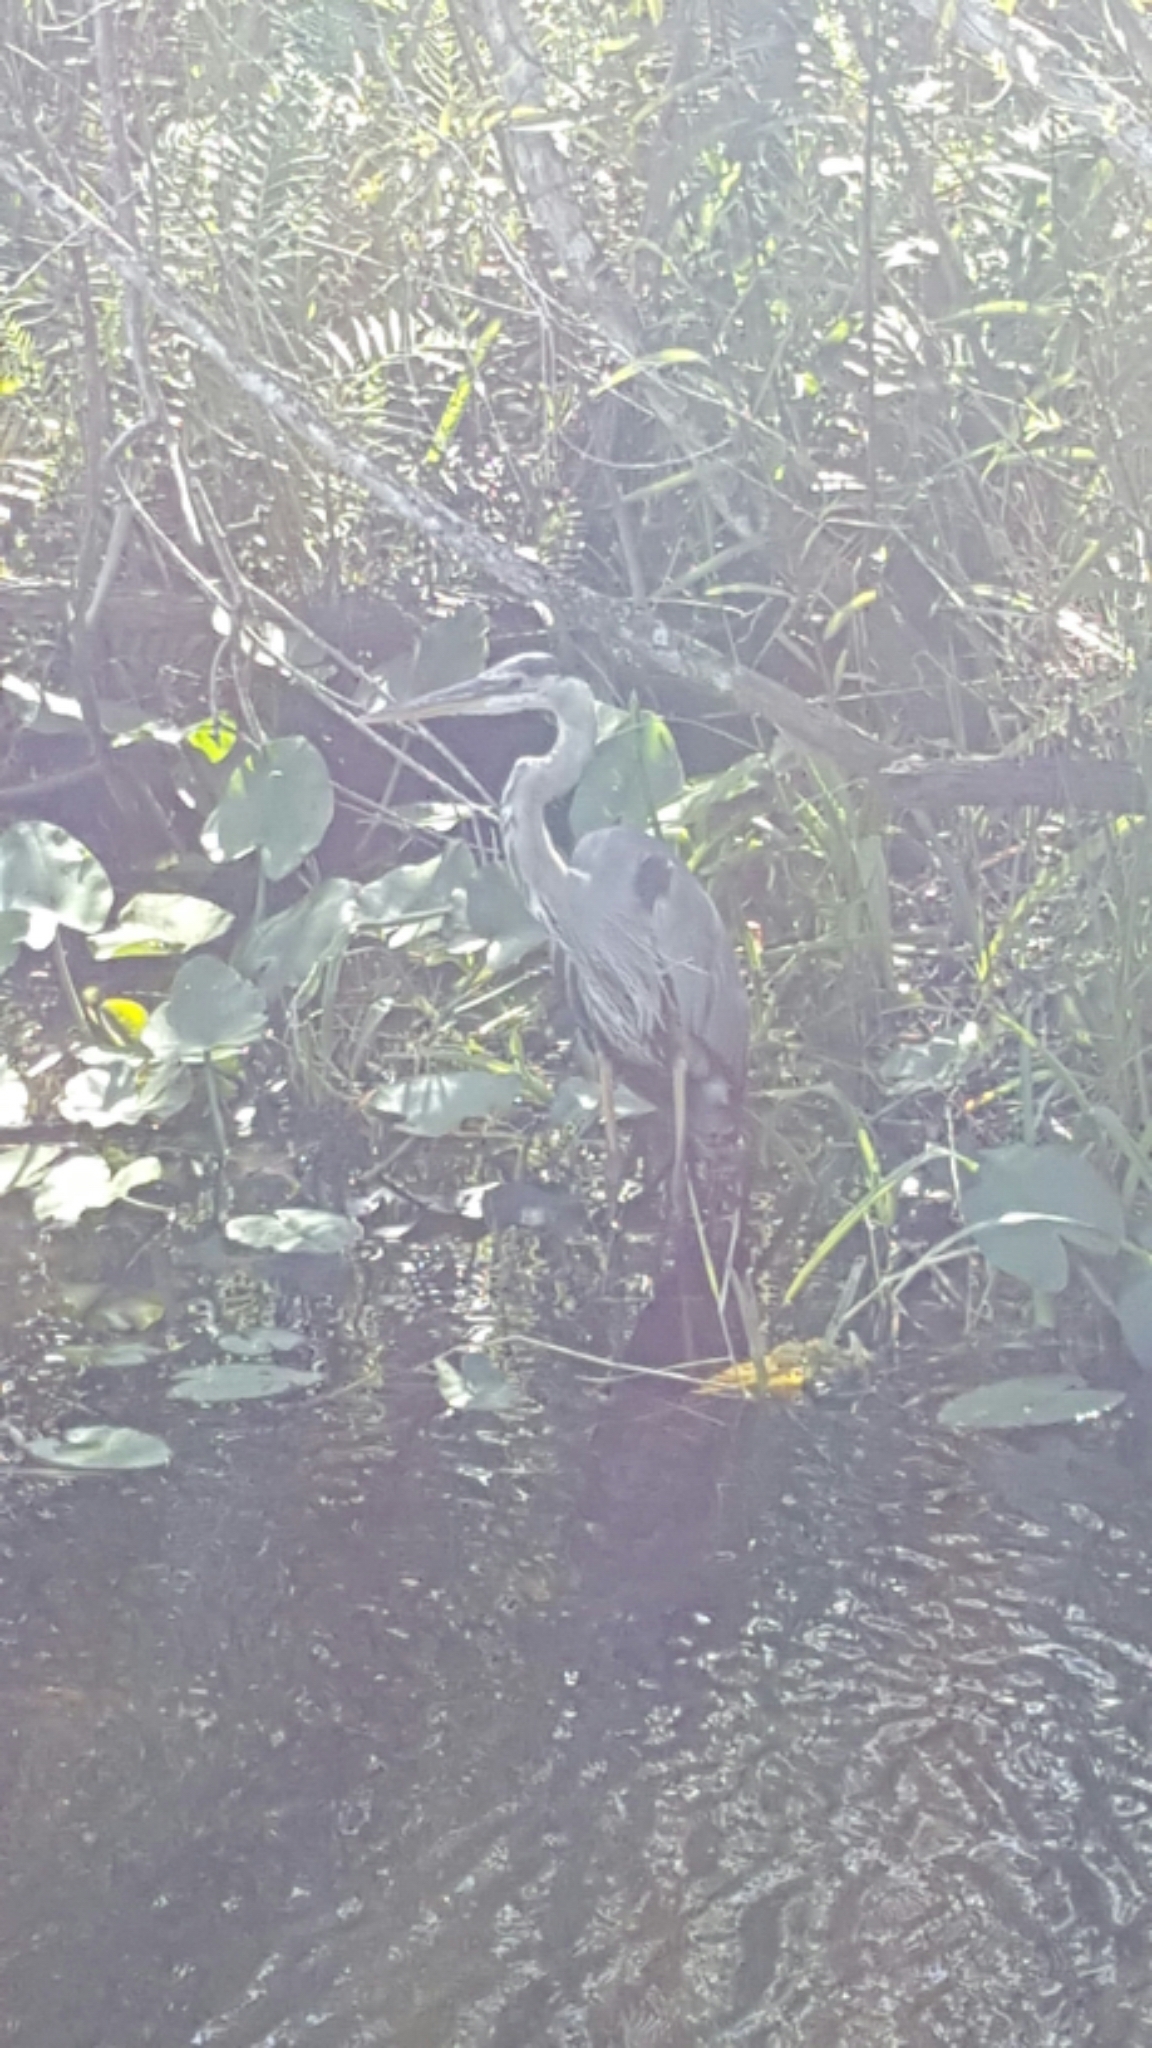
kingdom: Animalia
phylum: Chordata
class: Aves
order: Pelecaniformes
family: Ardeidae
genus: Ardea
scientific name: Ardea herodias
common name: Great blue heron
